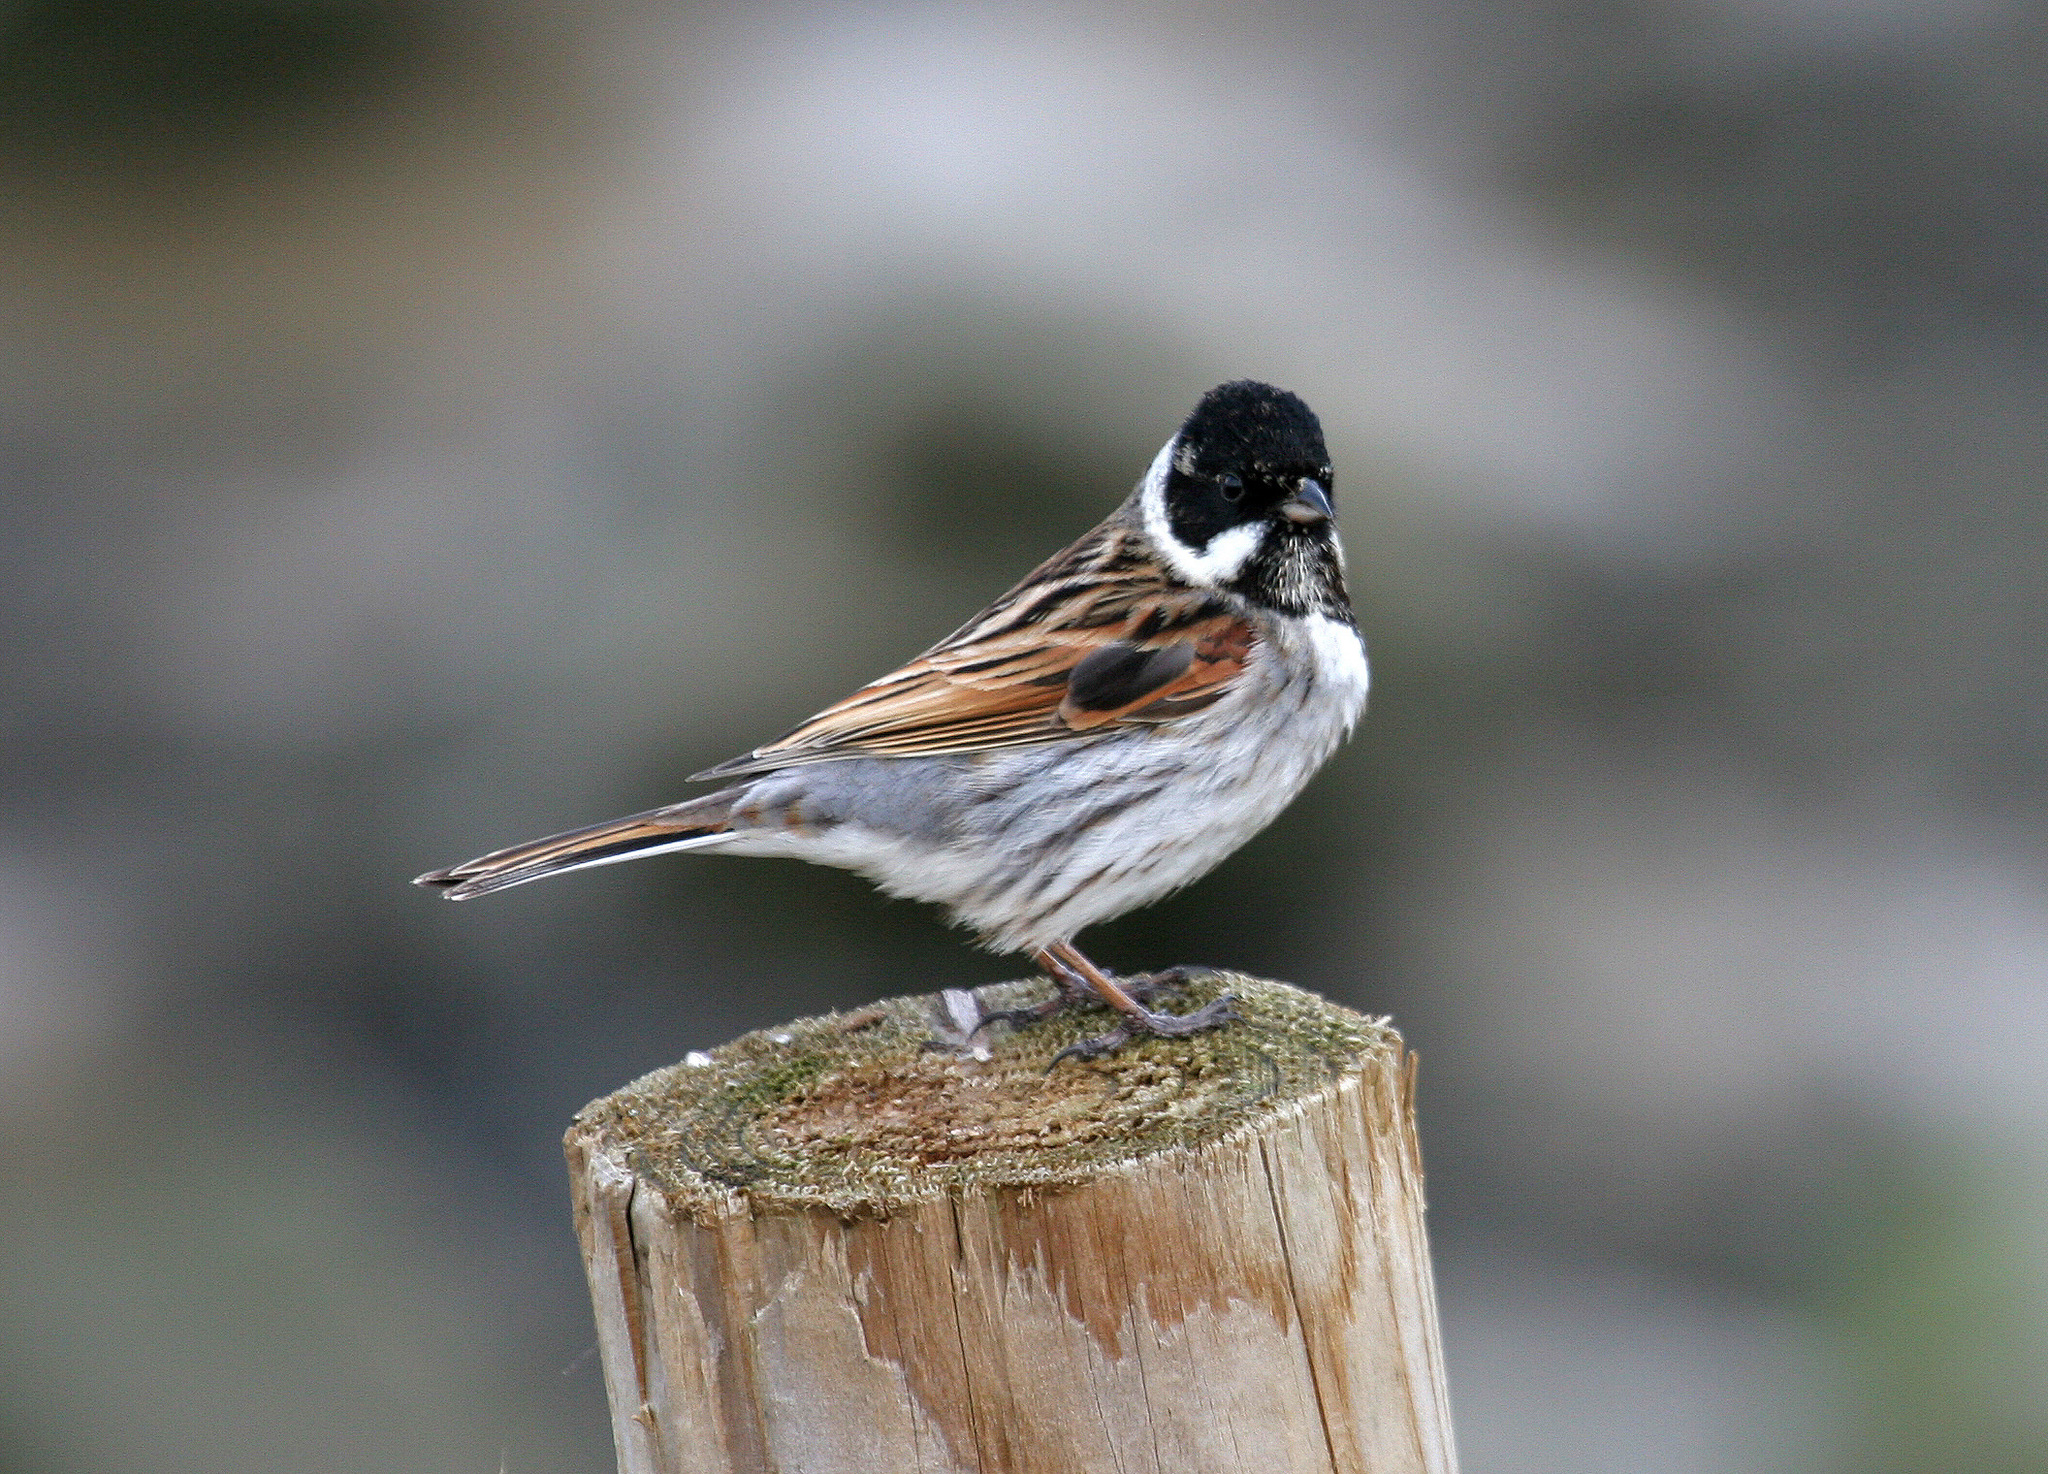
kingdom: Animalia
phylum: Chordata
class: Aves
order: Passeriformes
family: Emberizidae
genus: Emberiza
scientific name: Emberiza schoeniclus
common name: Reed bunting
